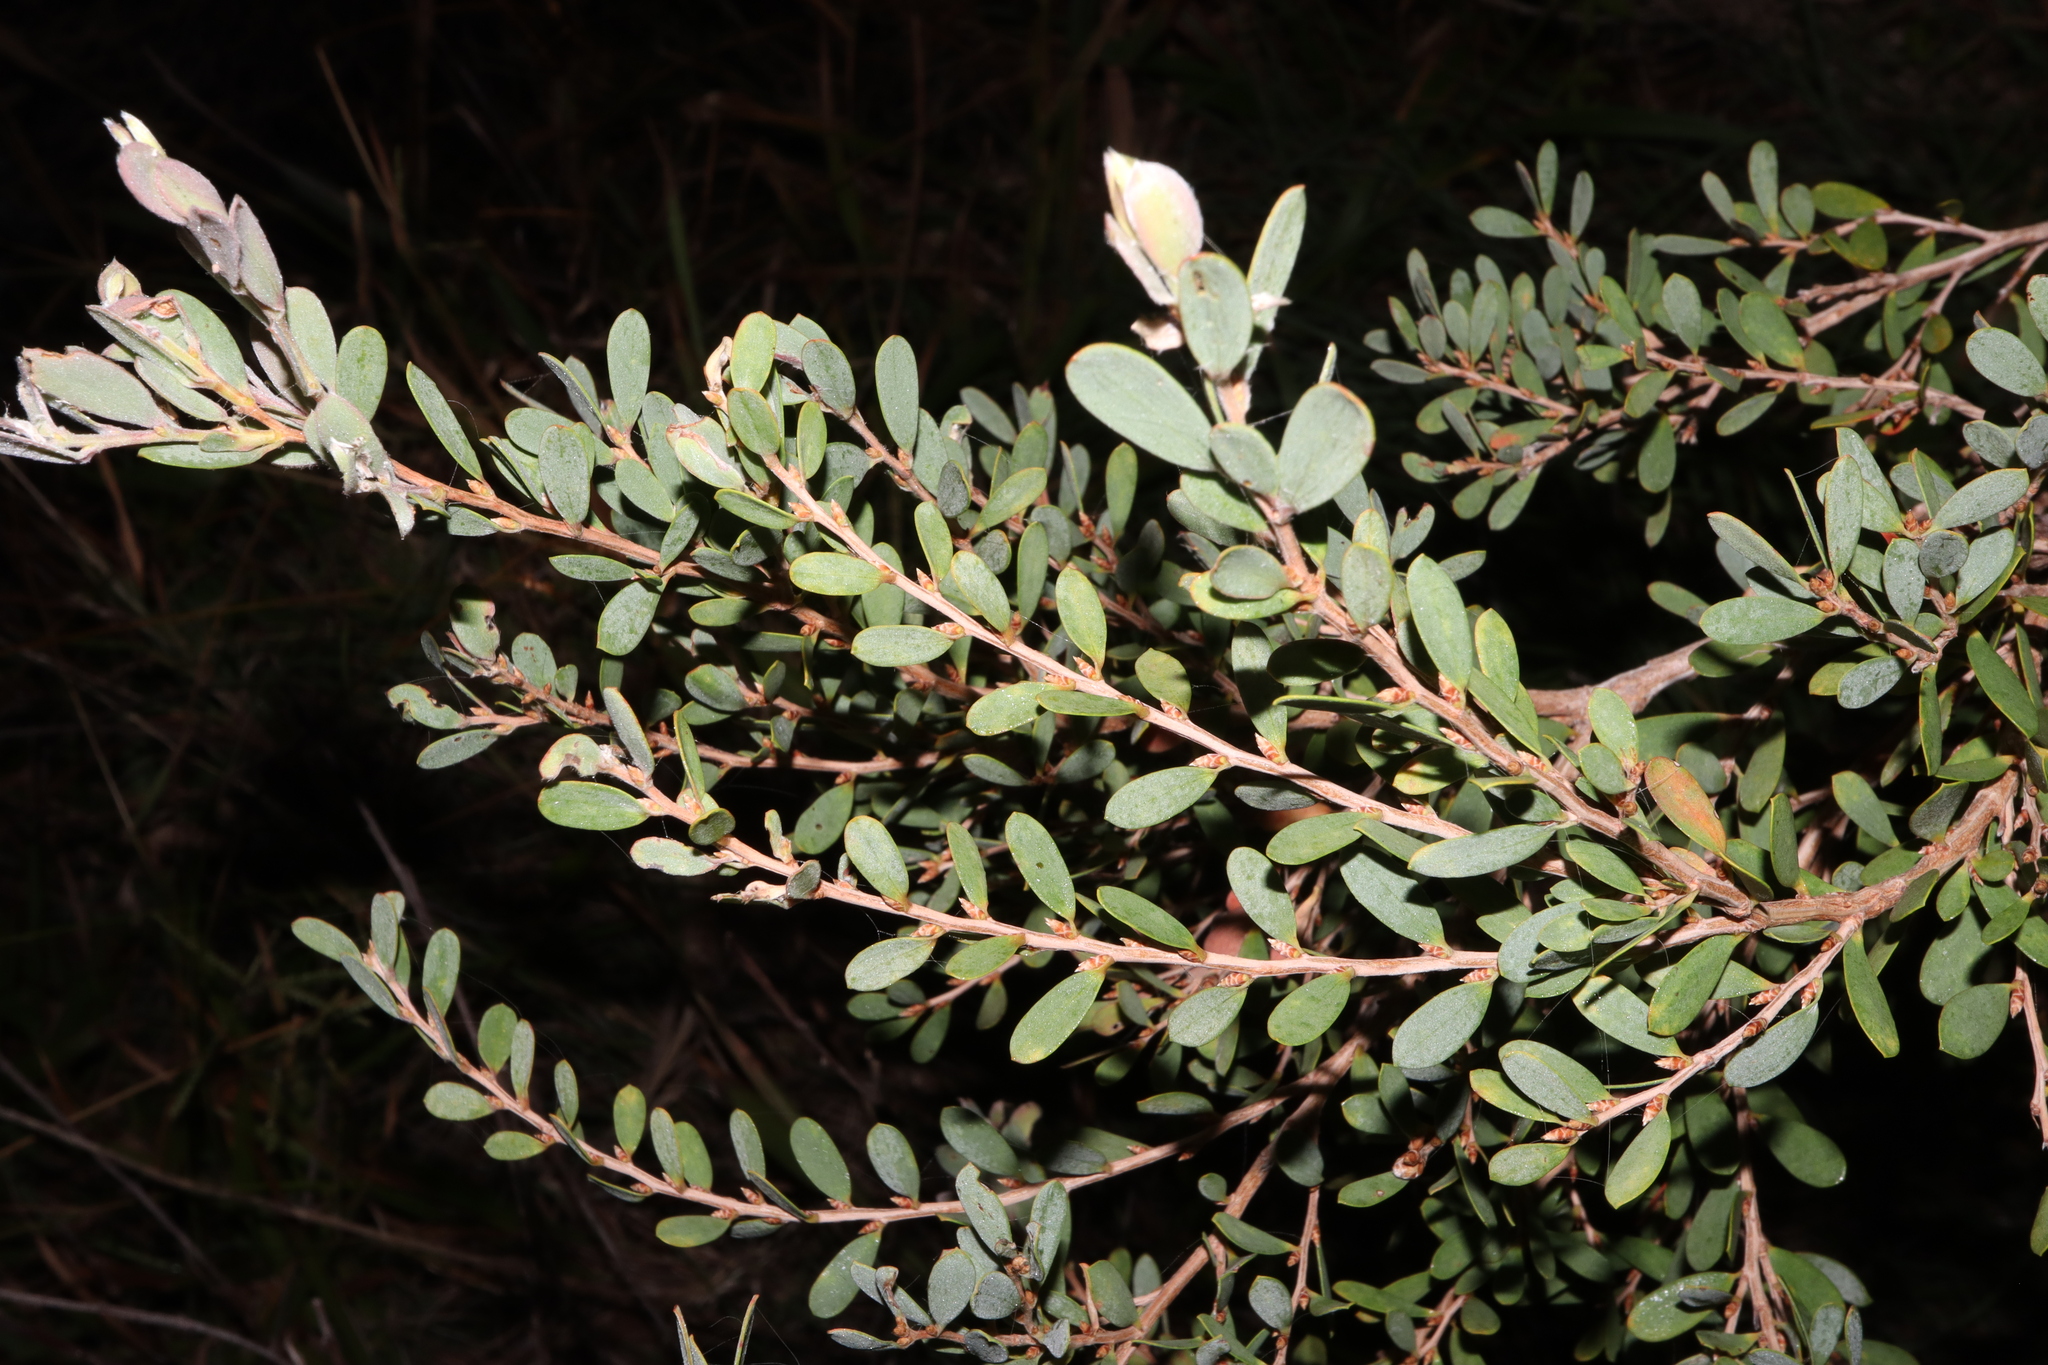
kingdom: Plantae
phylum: Tracheophyta
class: Magnoliopsida
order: Myrtales
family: Myrtaceae
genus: Leptospermum
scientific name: Leptospermum laevigatum
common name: Australian teatree
